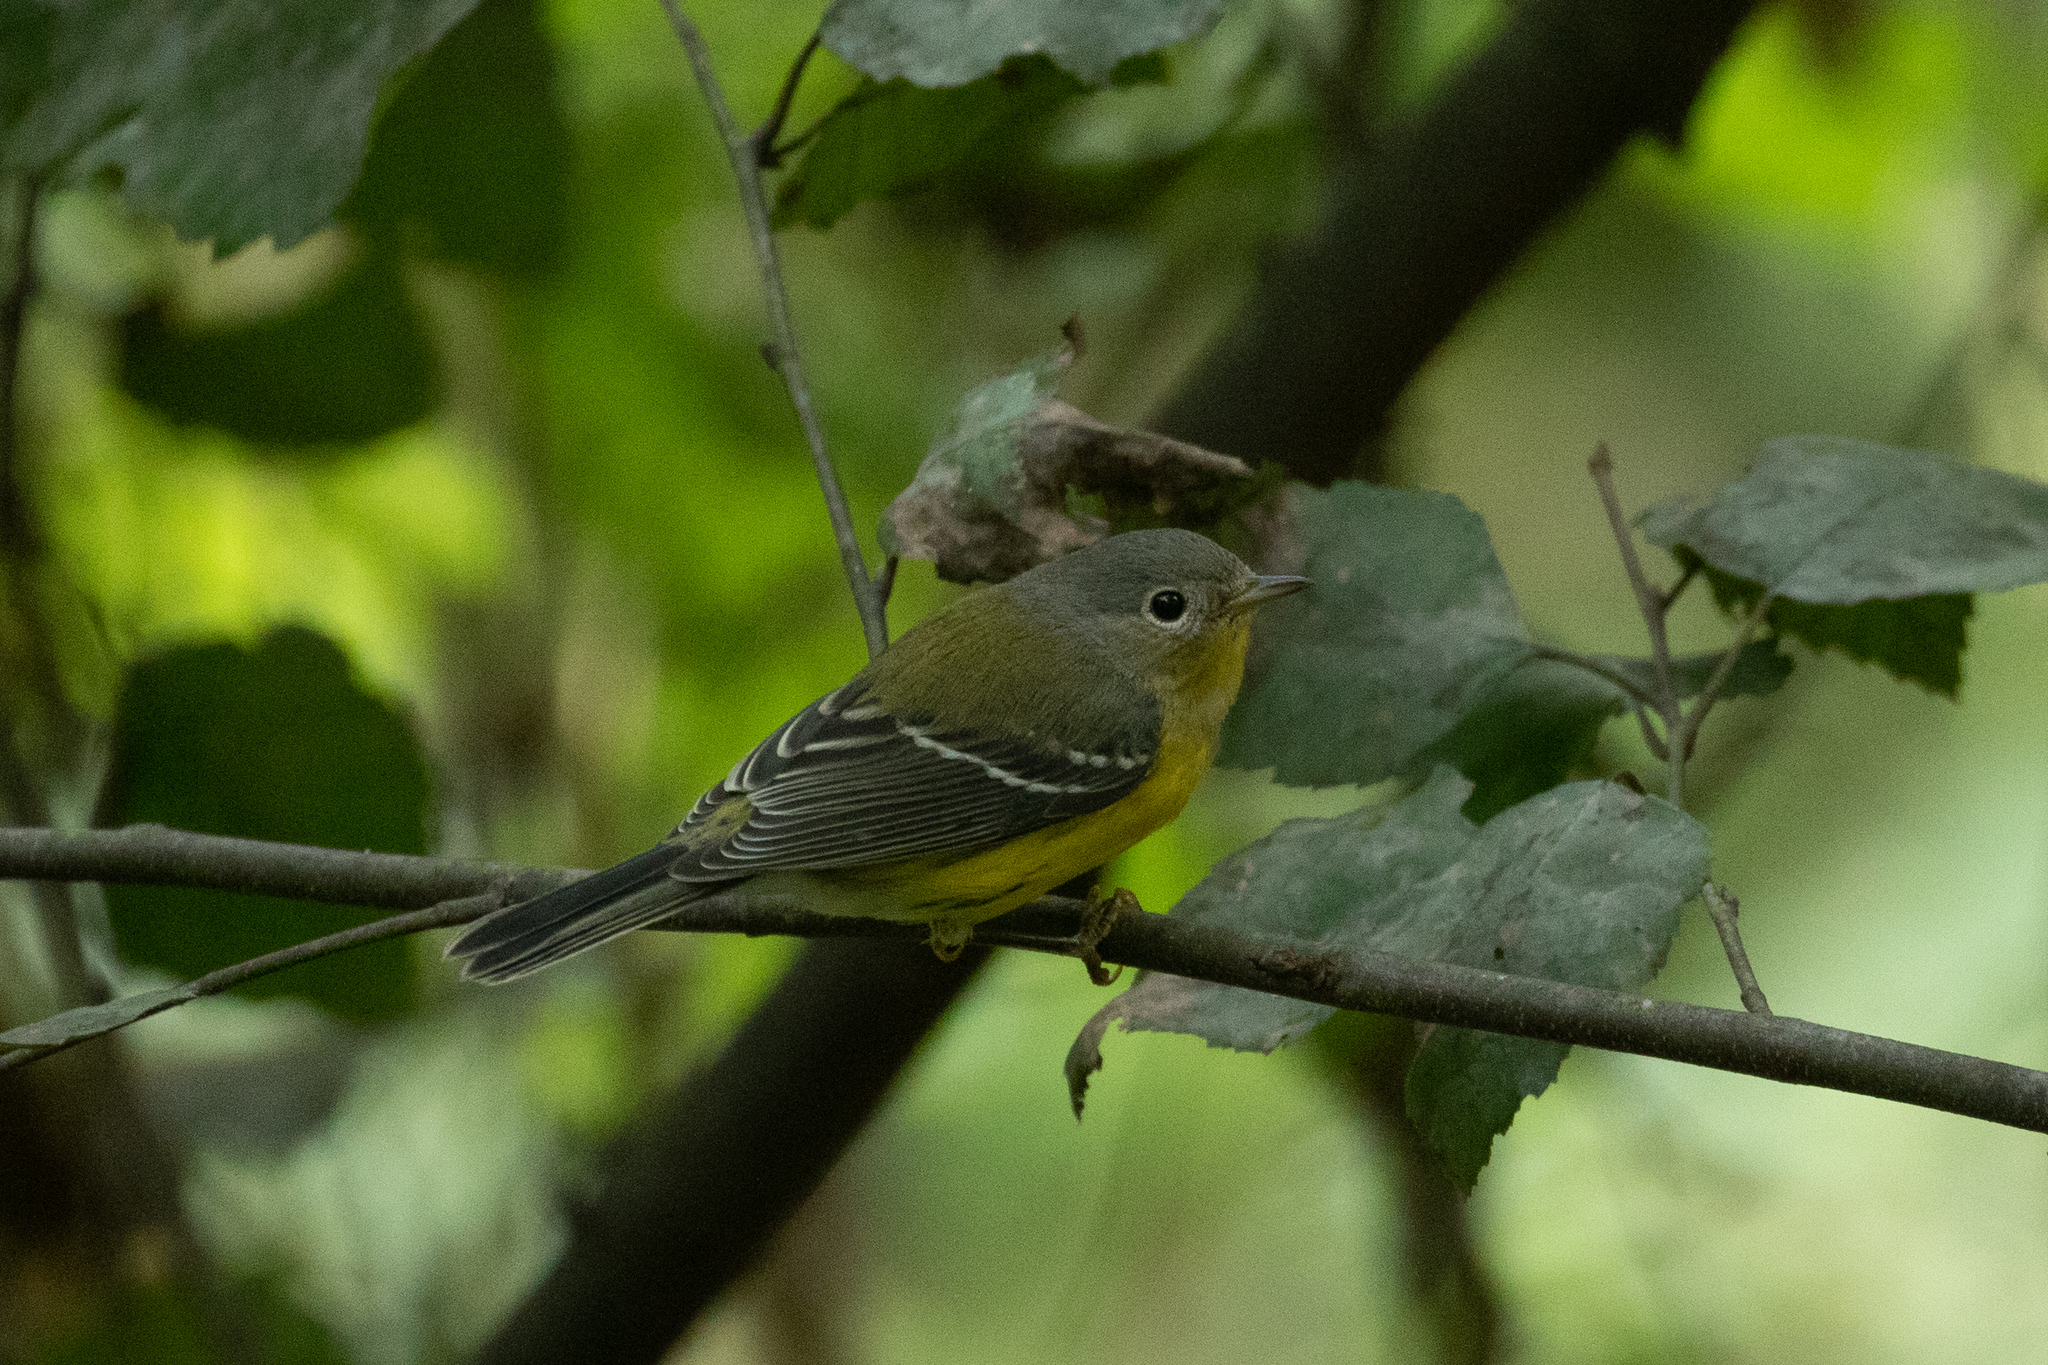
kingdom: Animalia
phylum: Chordata
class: Aves
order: Passeriformes
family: Parulidae
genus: Setophaga
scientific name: Setophaga magnolia
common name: Magnolia warbler
